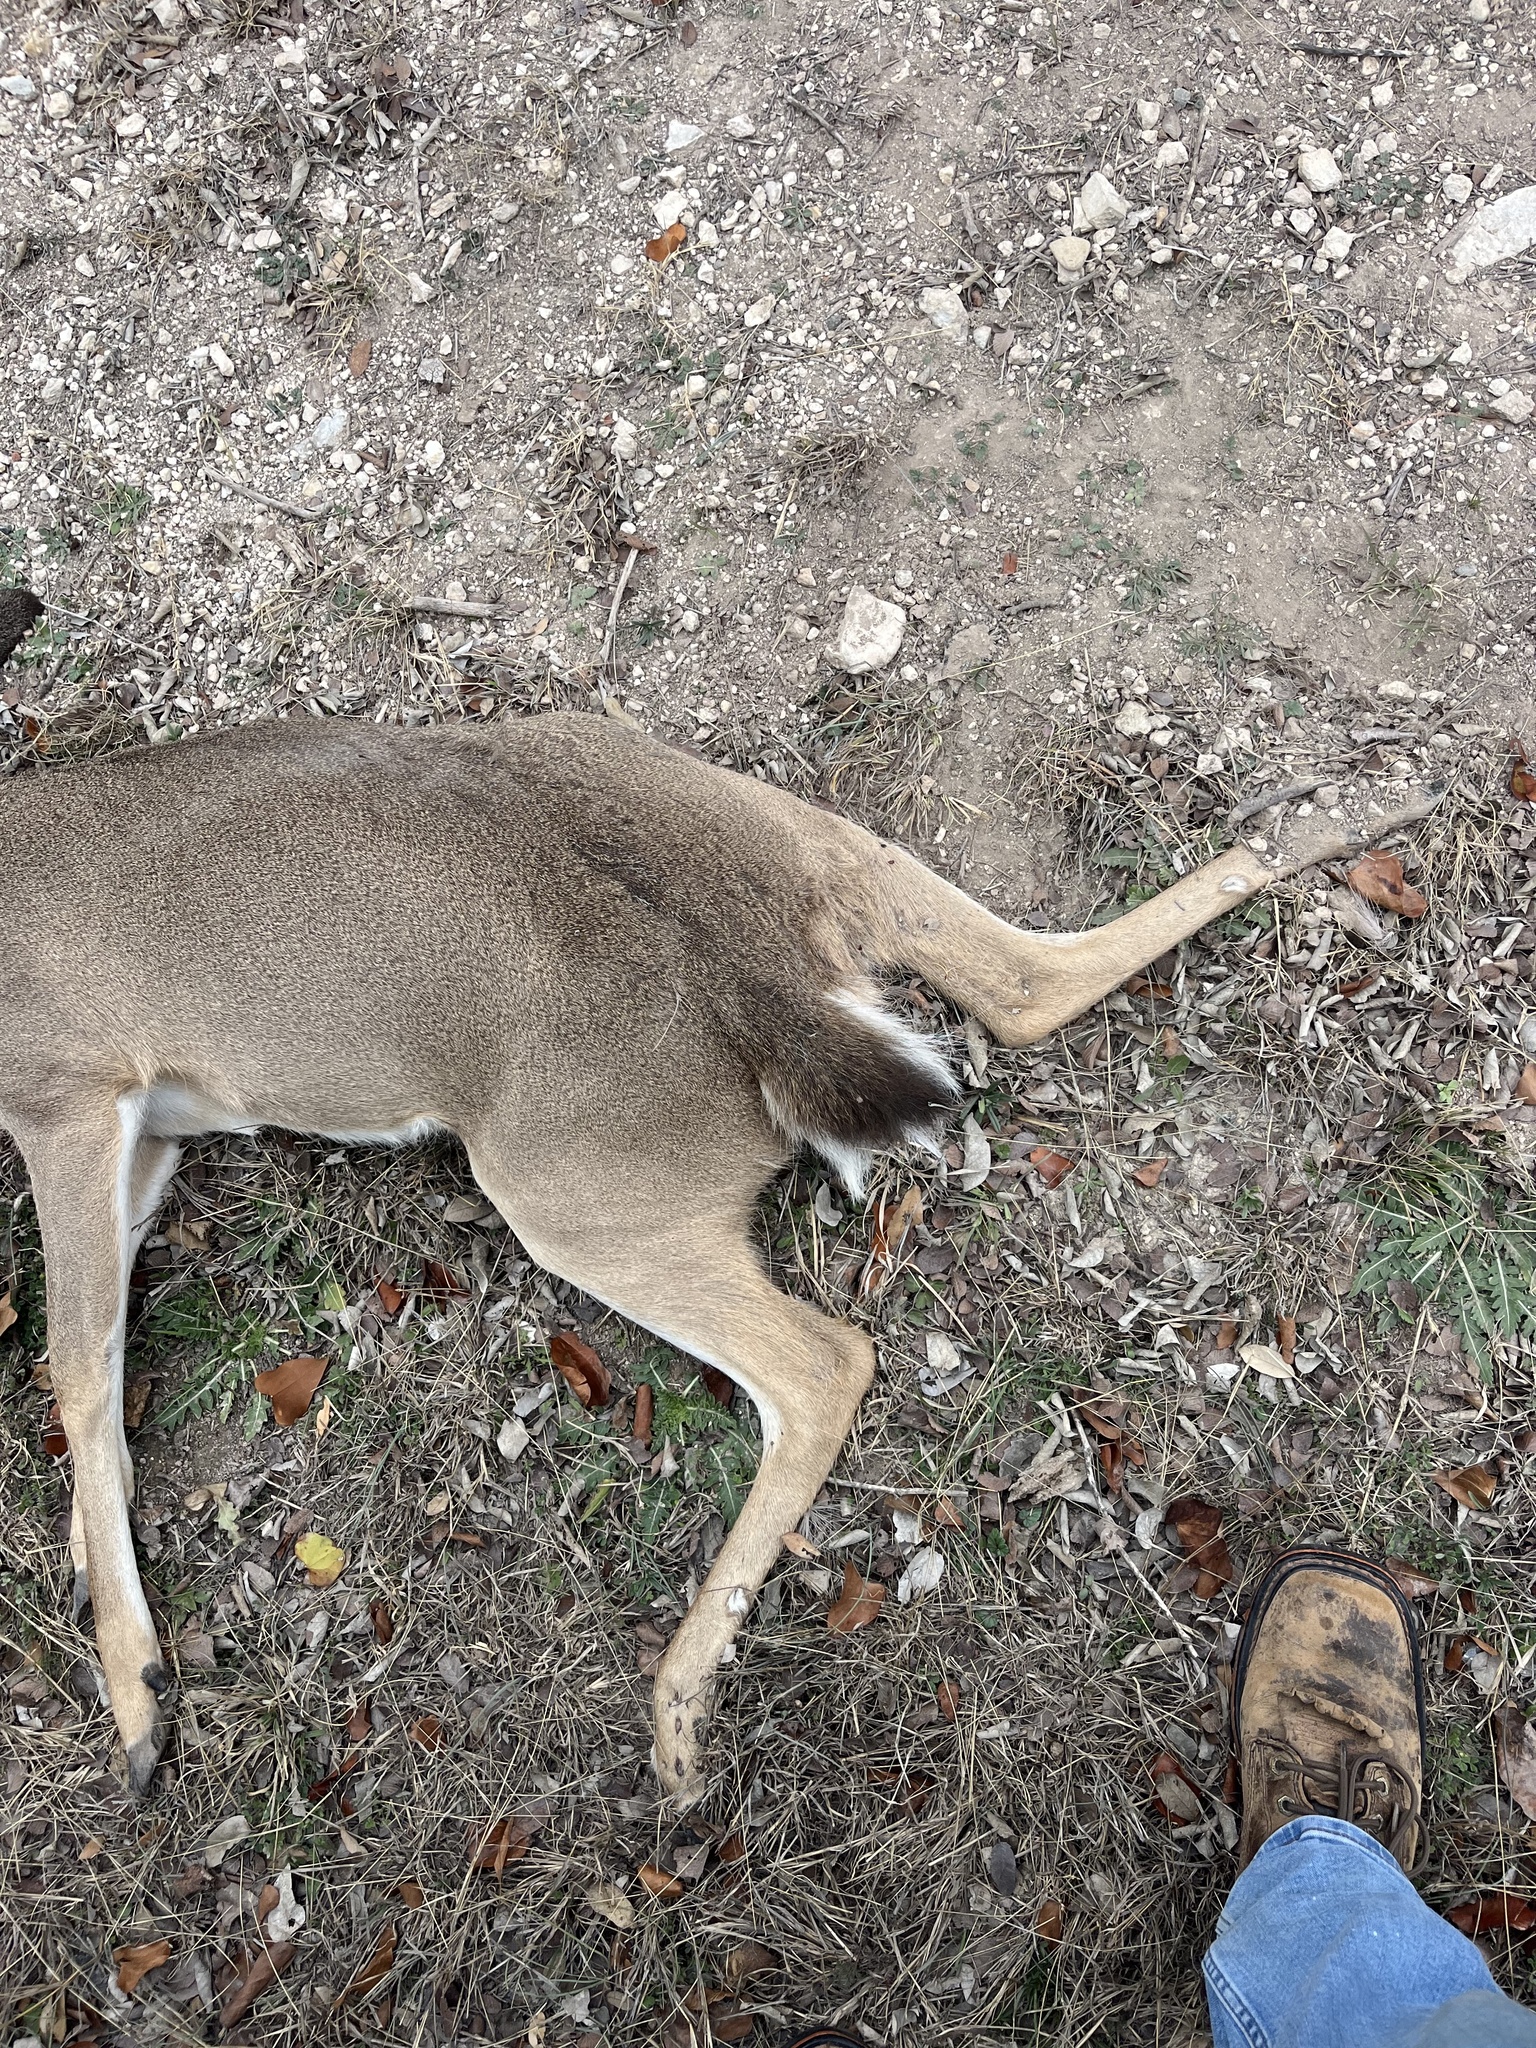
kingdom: Animalia
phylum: Chordata
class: Mammalia
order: Artiodactyla
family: Cervidae
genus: Odocoileus
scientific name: Odocoileus virginianus
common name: White-tailed deer
